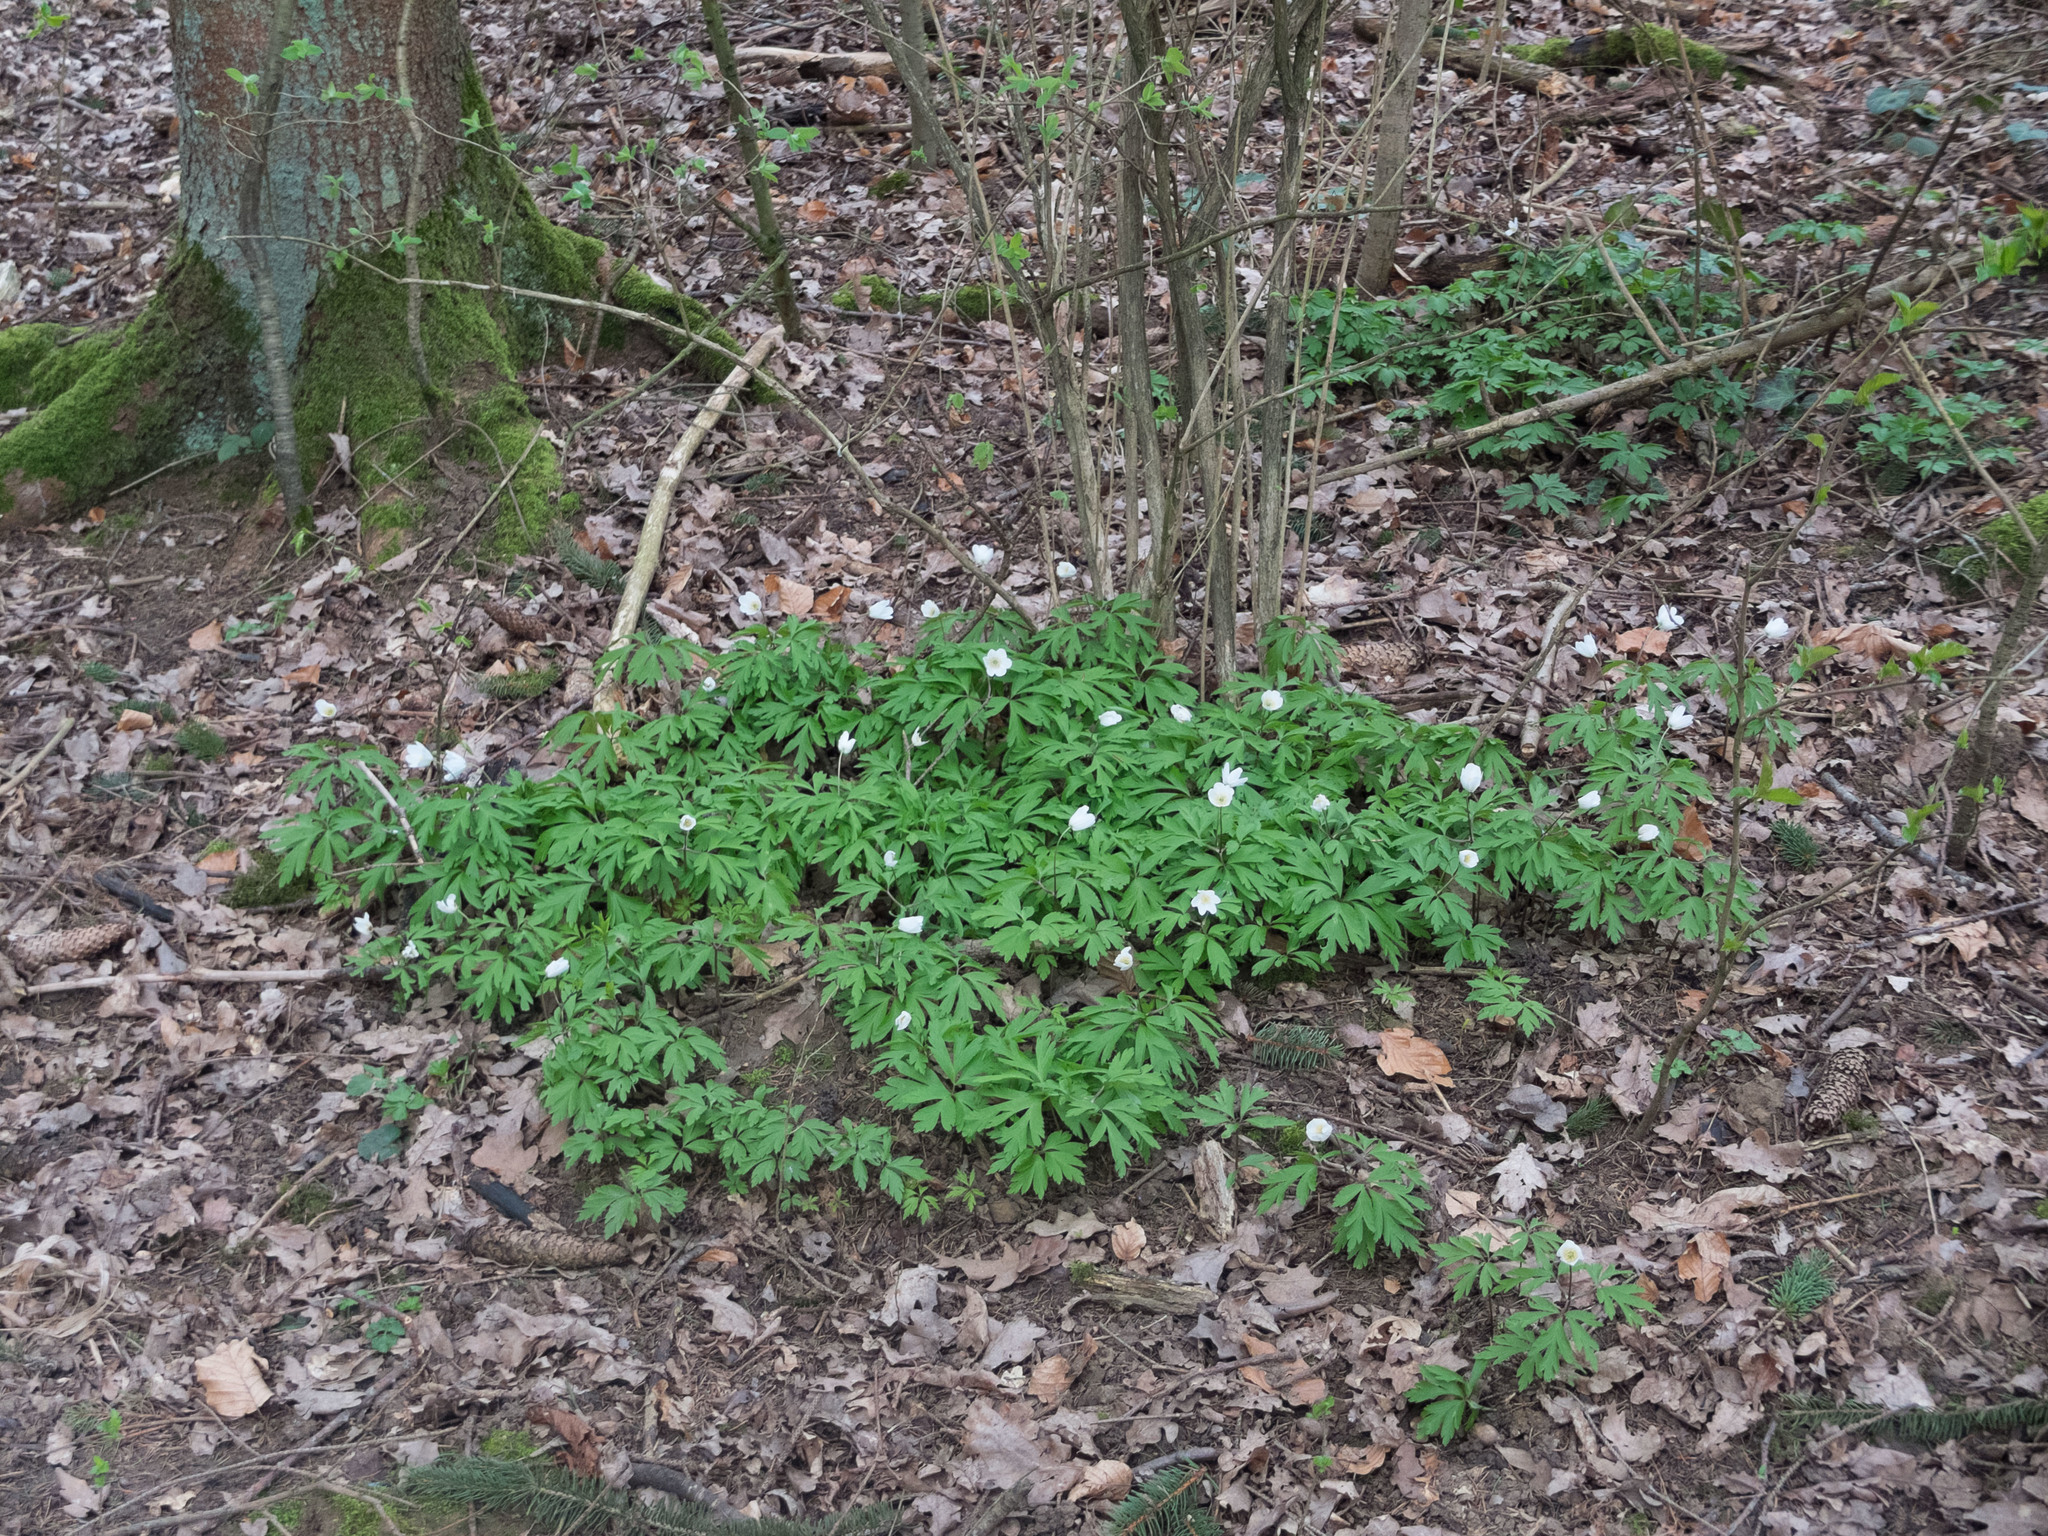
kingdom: Plantae
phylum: Tracheophyta
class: Magnoliopsida
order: Ranunculales
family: Ranunculaceae
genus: Anemone
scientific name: Anemone nemorosa
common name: Wood anemone
